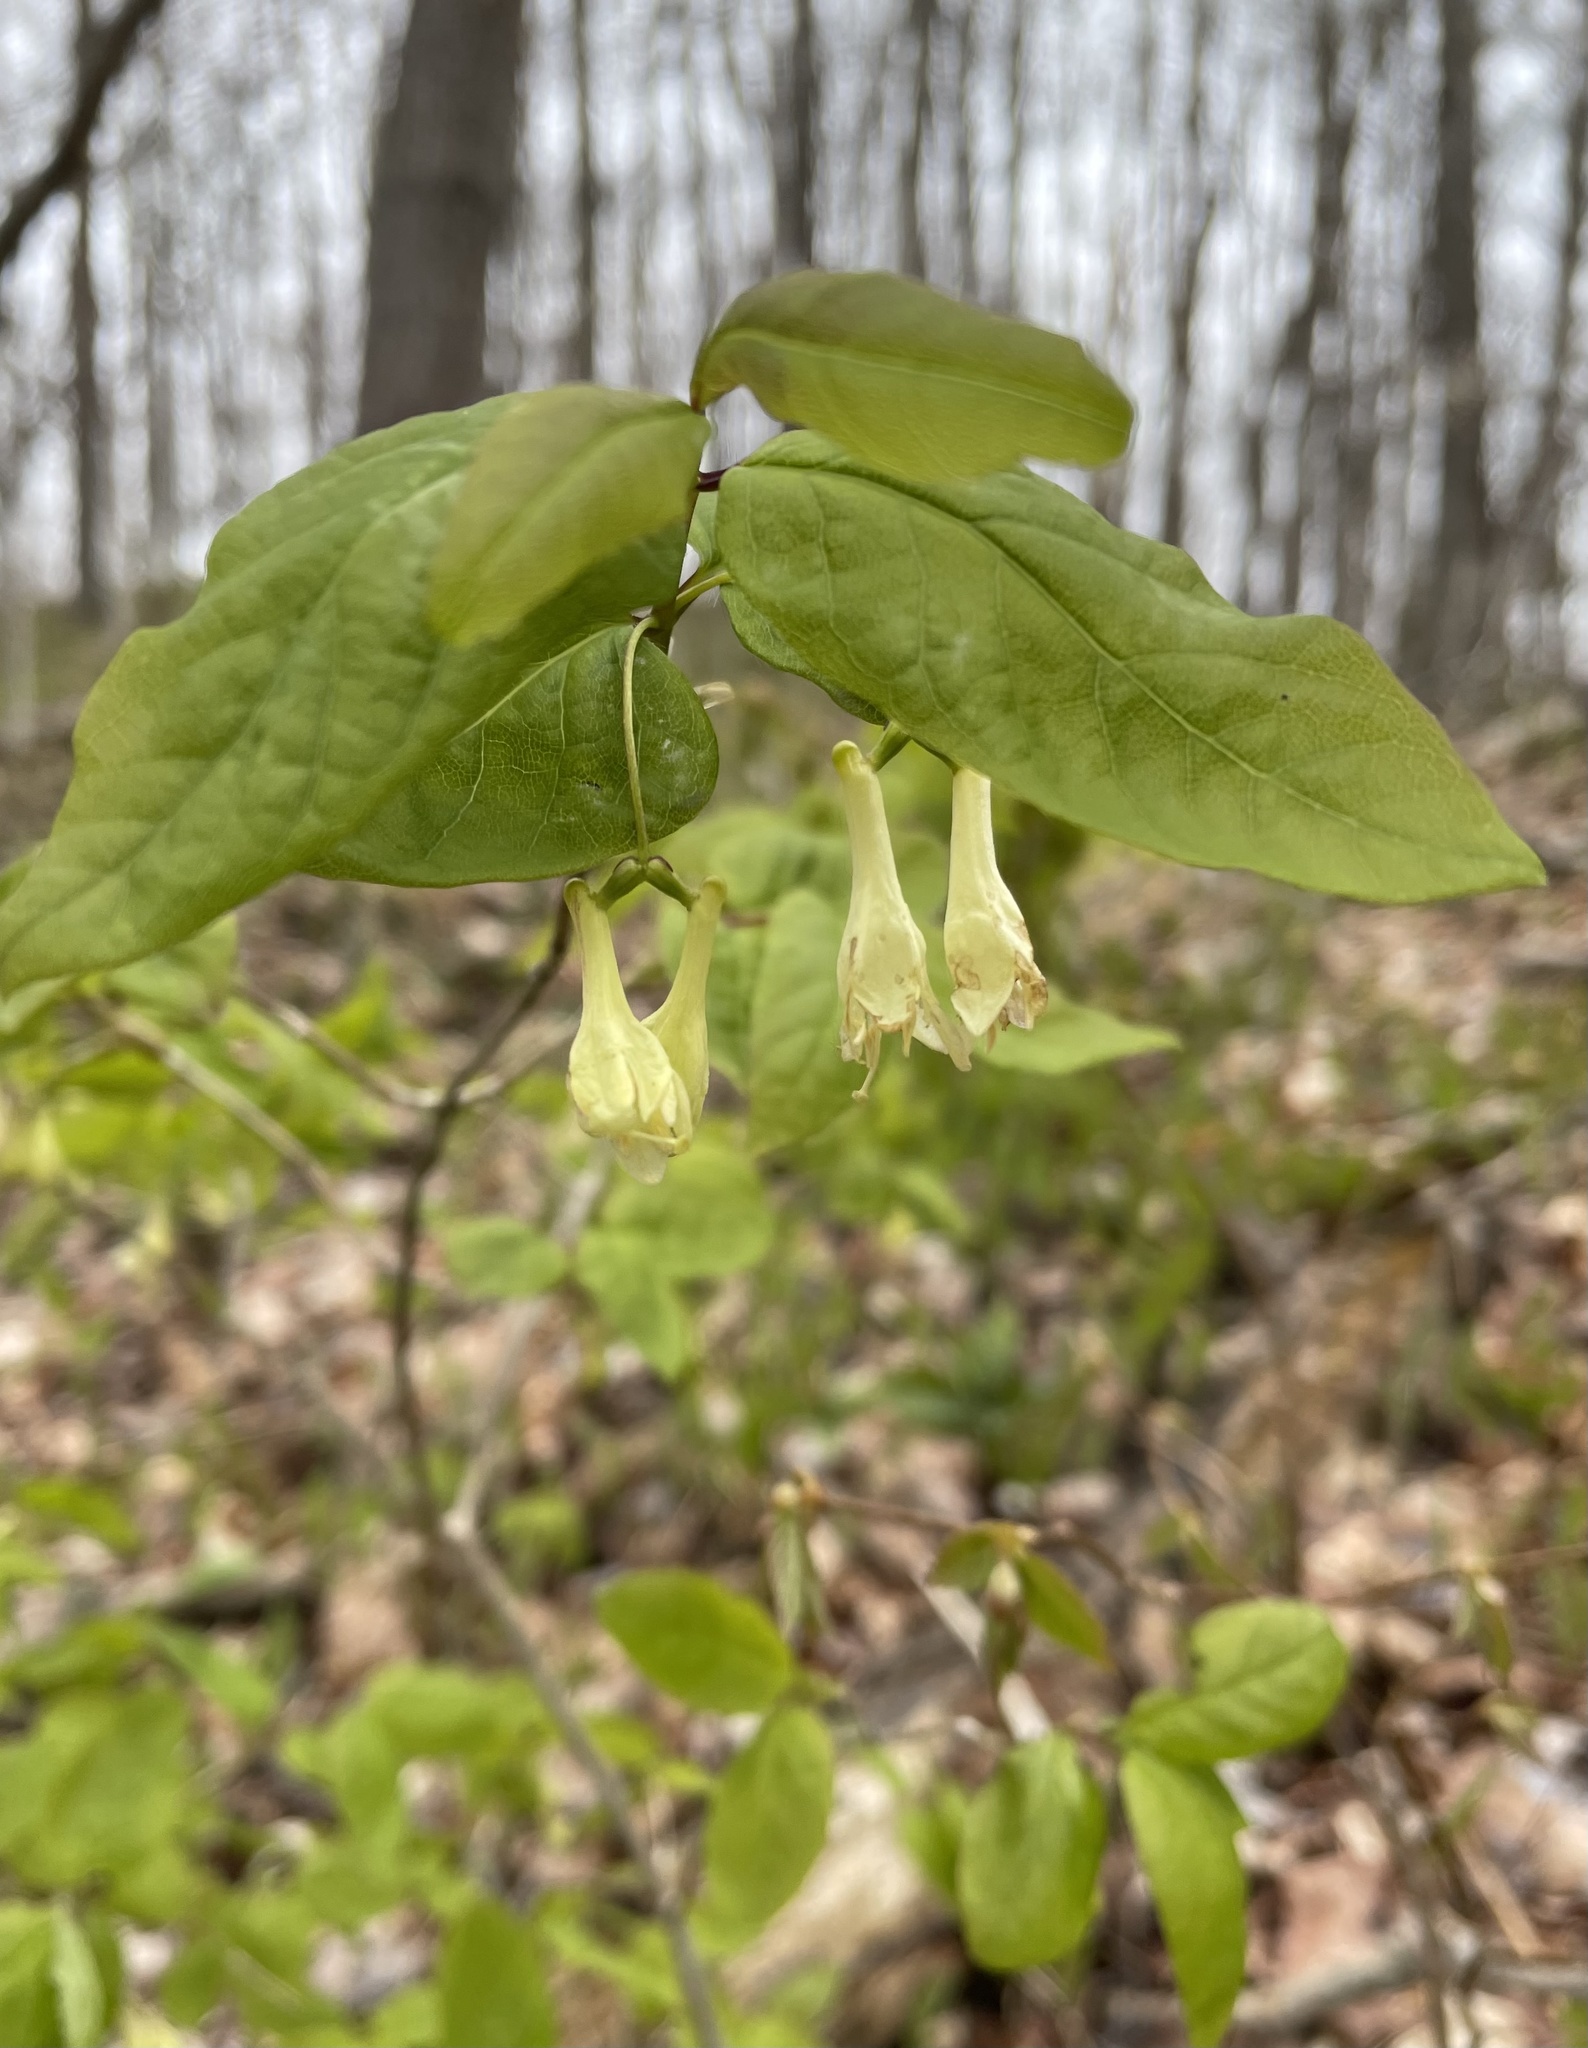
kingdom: Plantae
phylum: Tracheophyta
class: Magnoliopsida
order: Dipsacales
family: Caprifoliaceae
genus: Lonicera
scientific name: Lonicera canadensis
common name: American fly-honeysuckle
